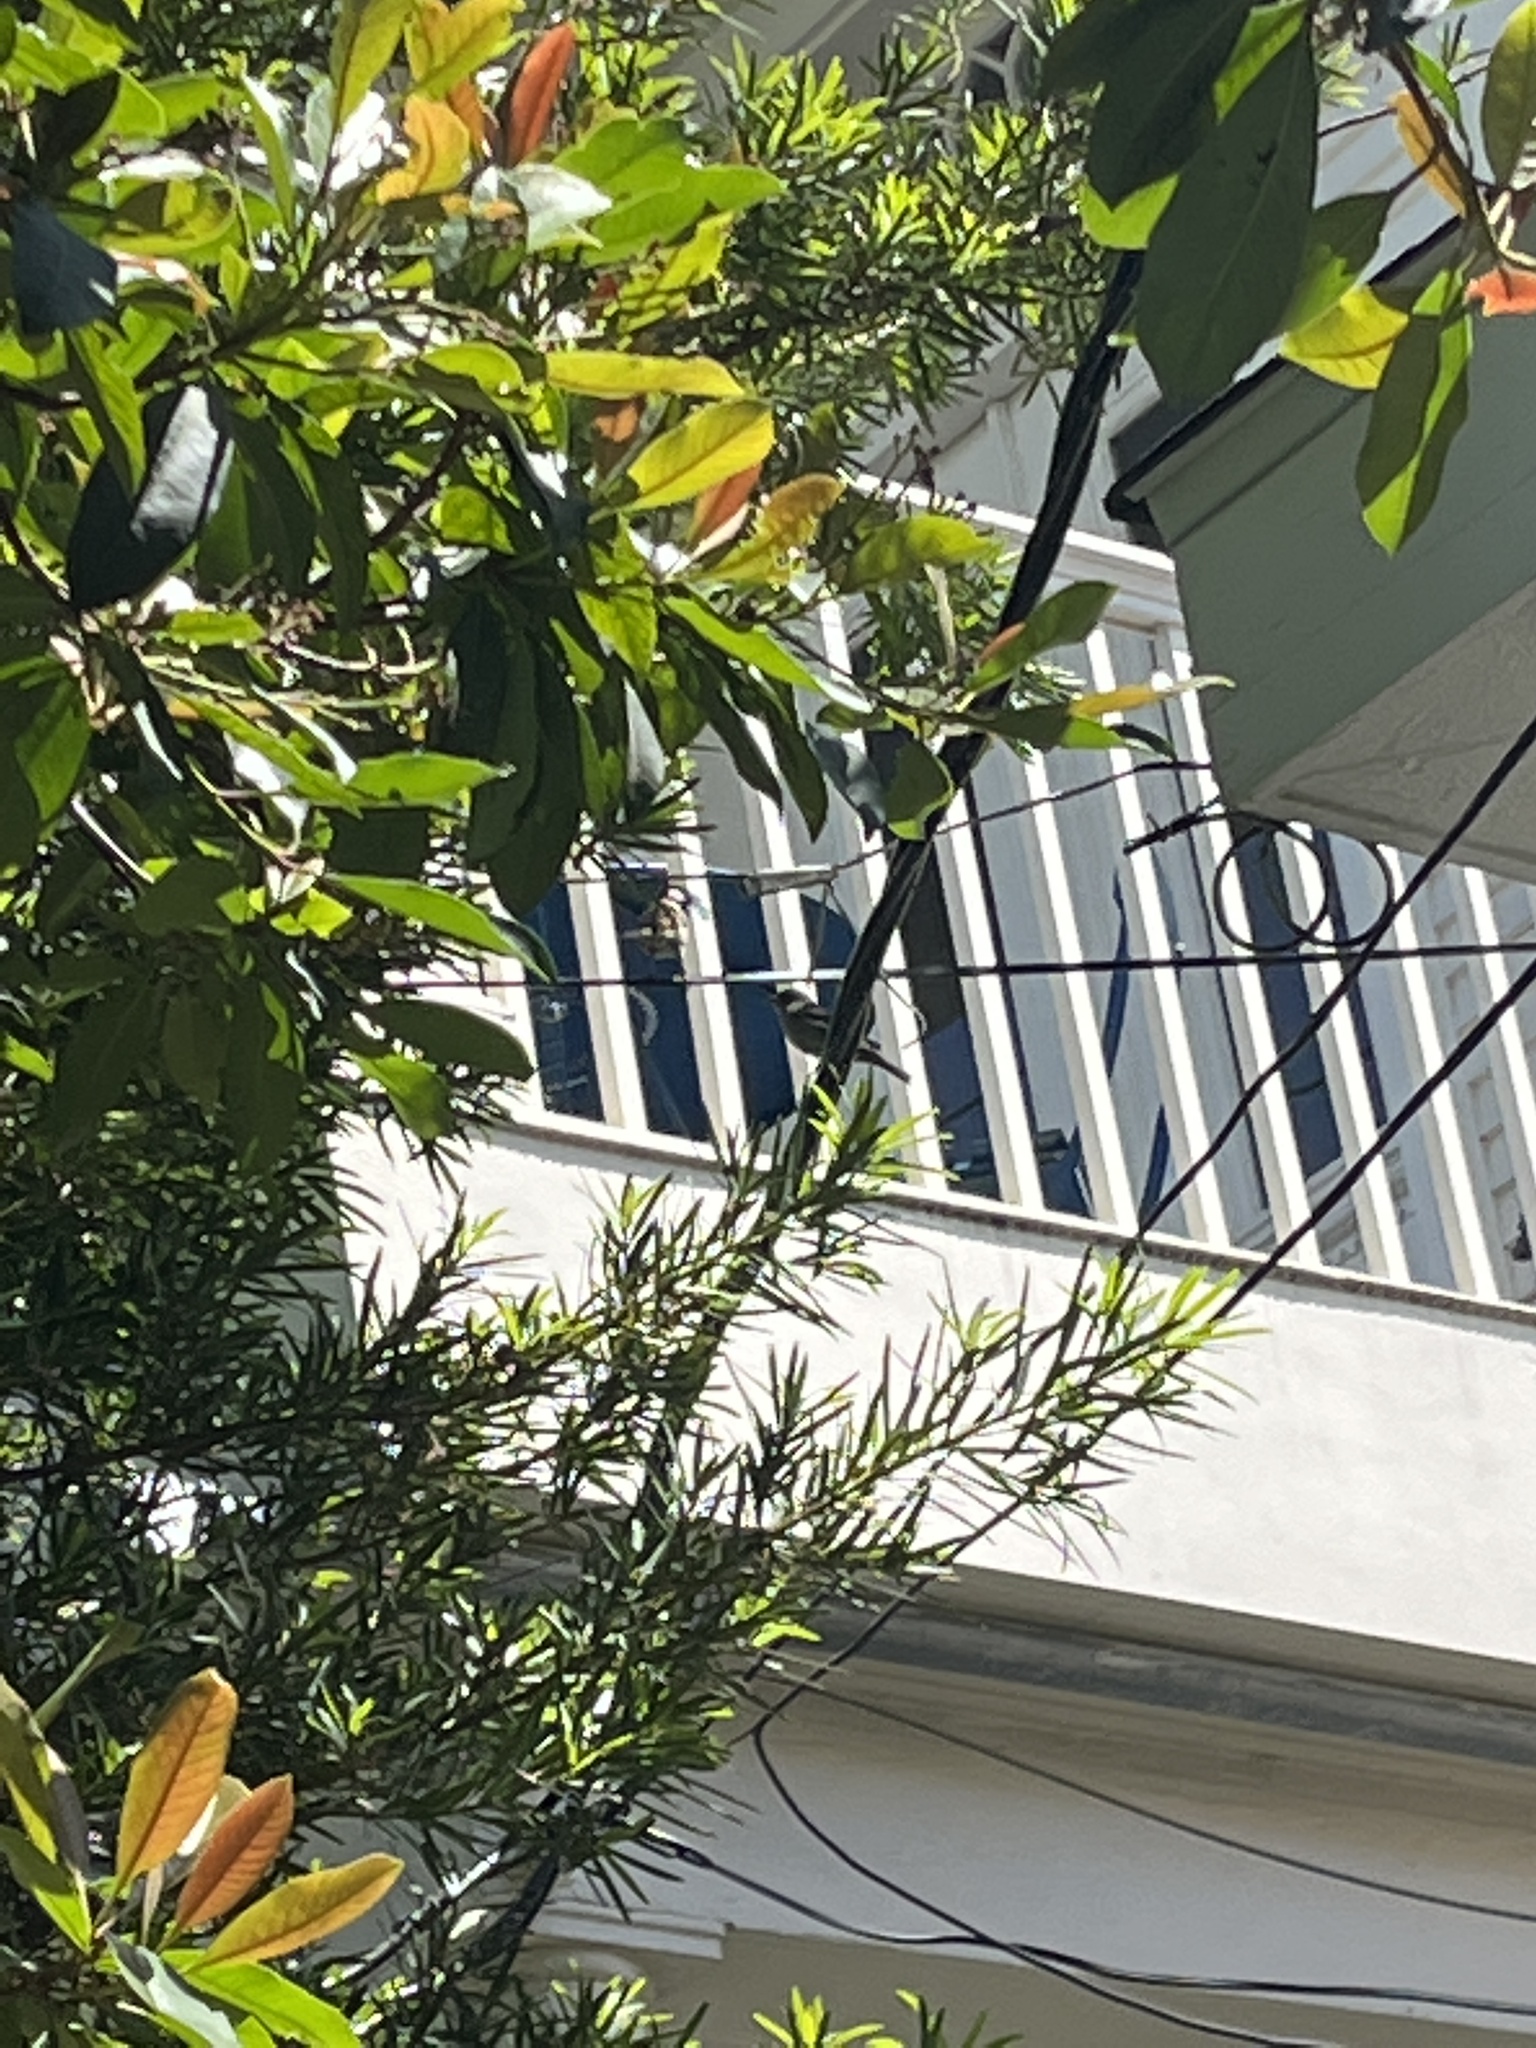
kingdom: Animalia
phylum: Chordata
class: Aves
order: Passeriformes
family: Passeridae
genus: Passer
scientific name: Passer domesticus
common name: House sparrow
